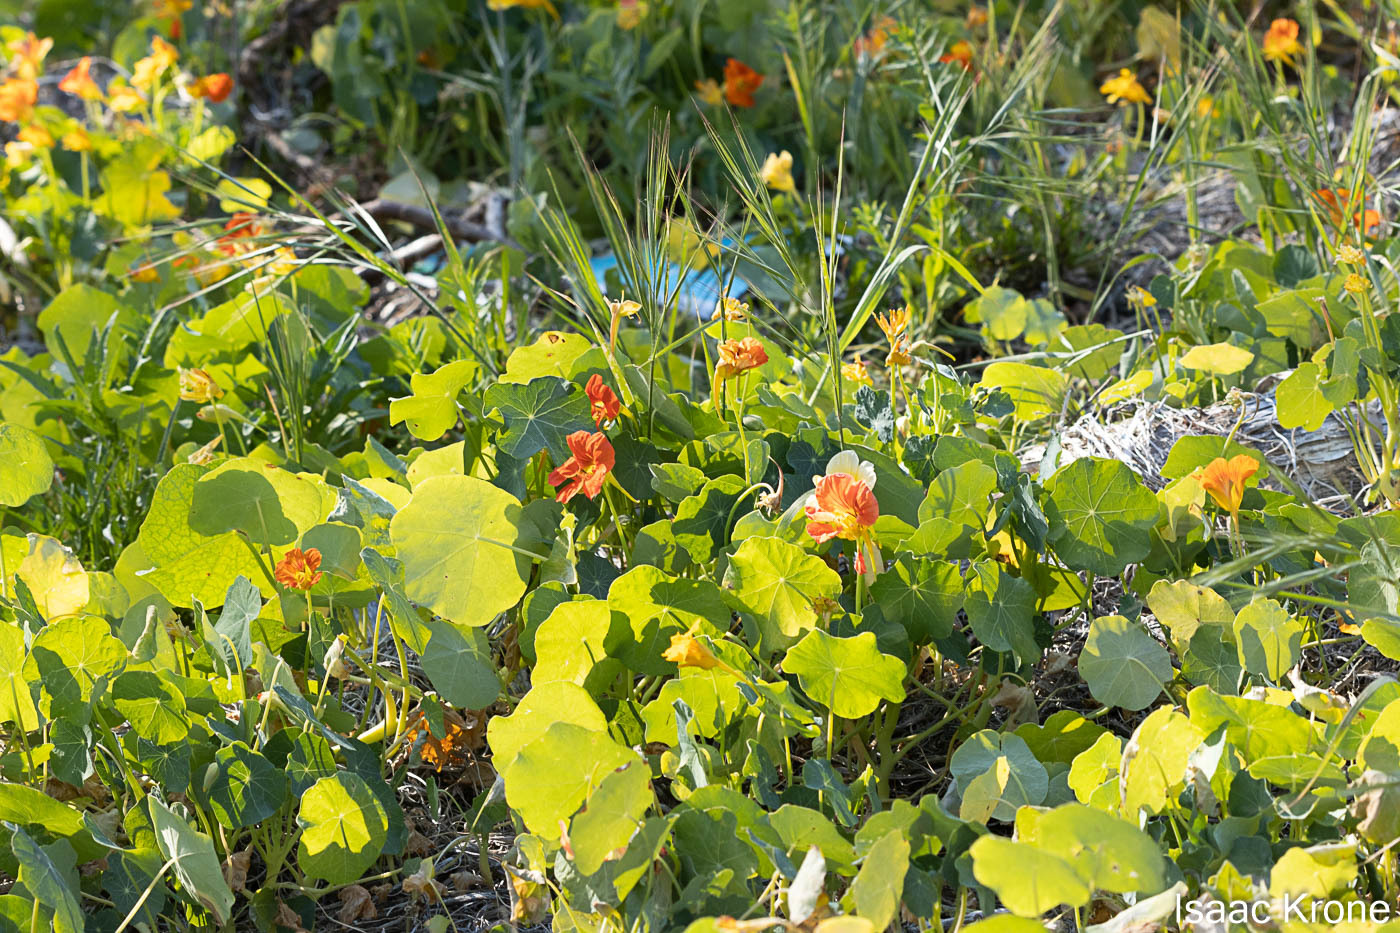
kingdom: Plantae
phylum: Tracheophyta
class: Magnoliopsida
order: Brassicales
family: Tropaeolaceae
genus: Tropaeolum
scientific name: Tropaeolum majus
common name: Nasturtium
